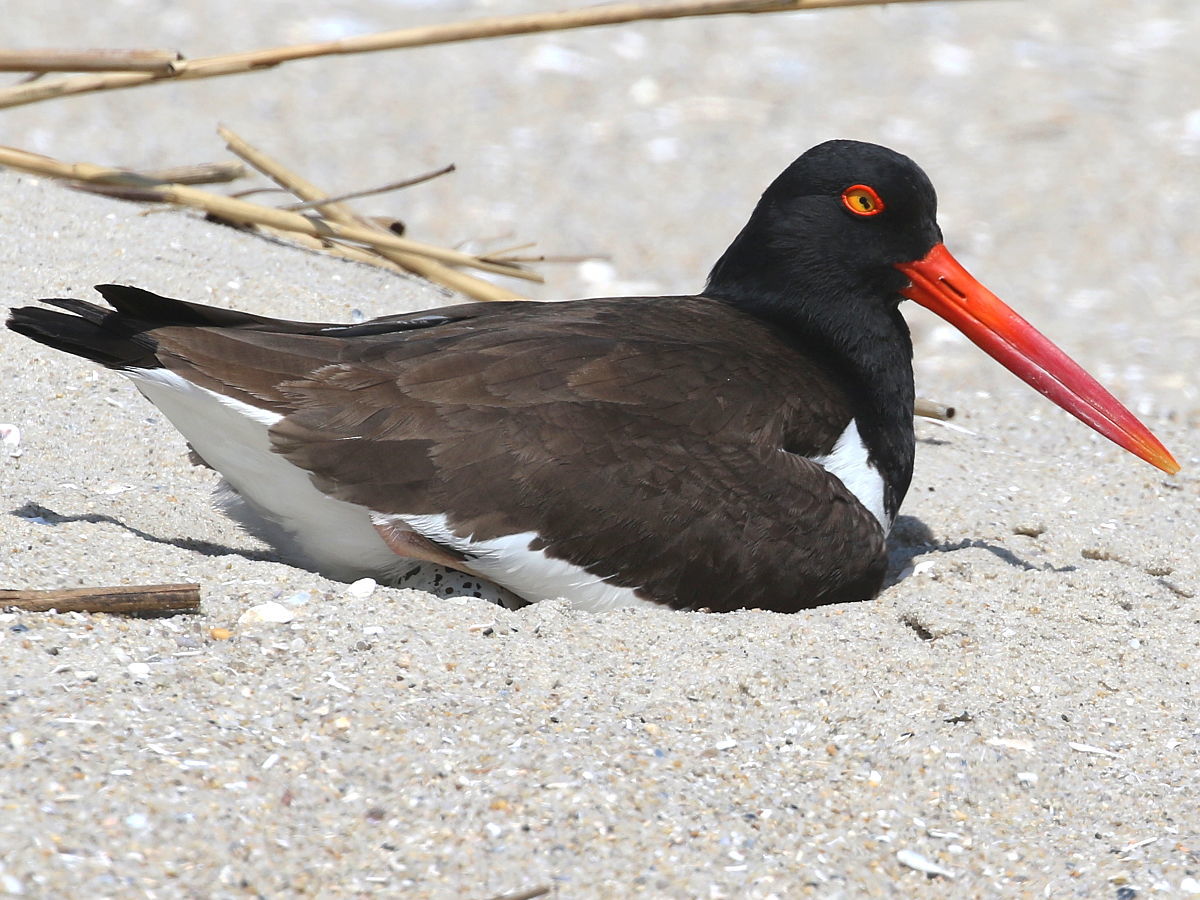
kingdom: Animalia
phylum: Chordata
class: Aves
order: Charadriiformes
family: Haematopodidae
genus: Haematopus
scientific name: Haematopus palliatus
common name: American oystercatcher
